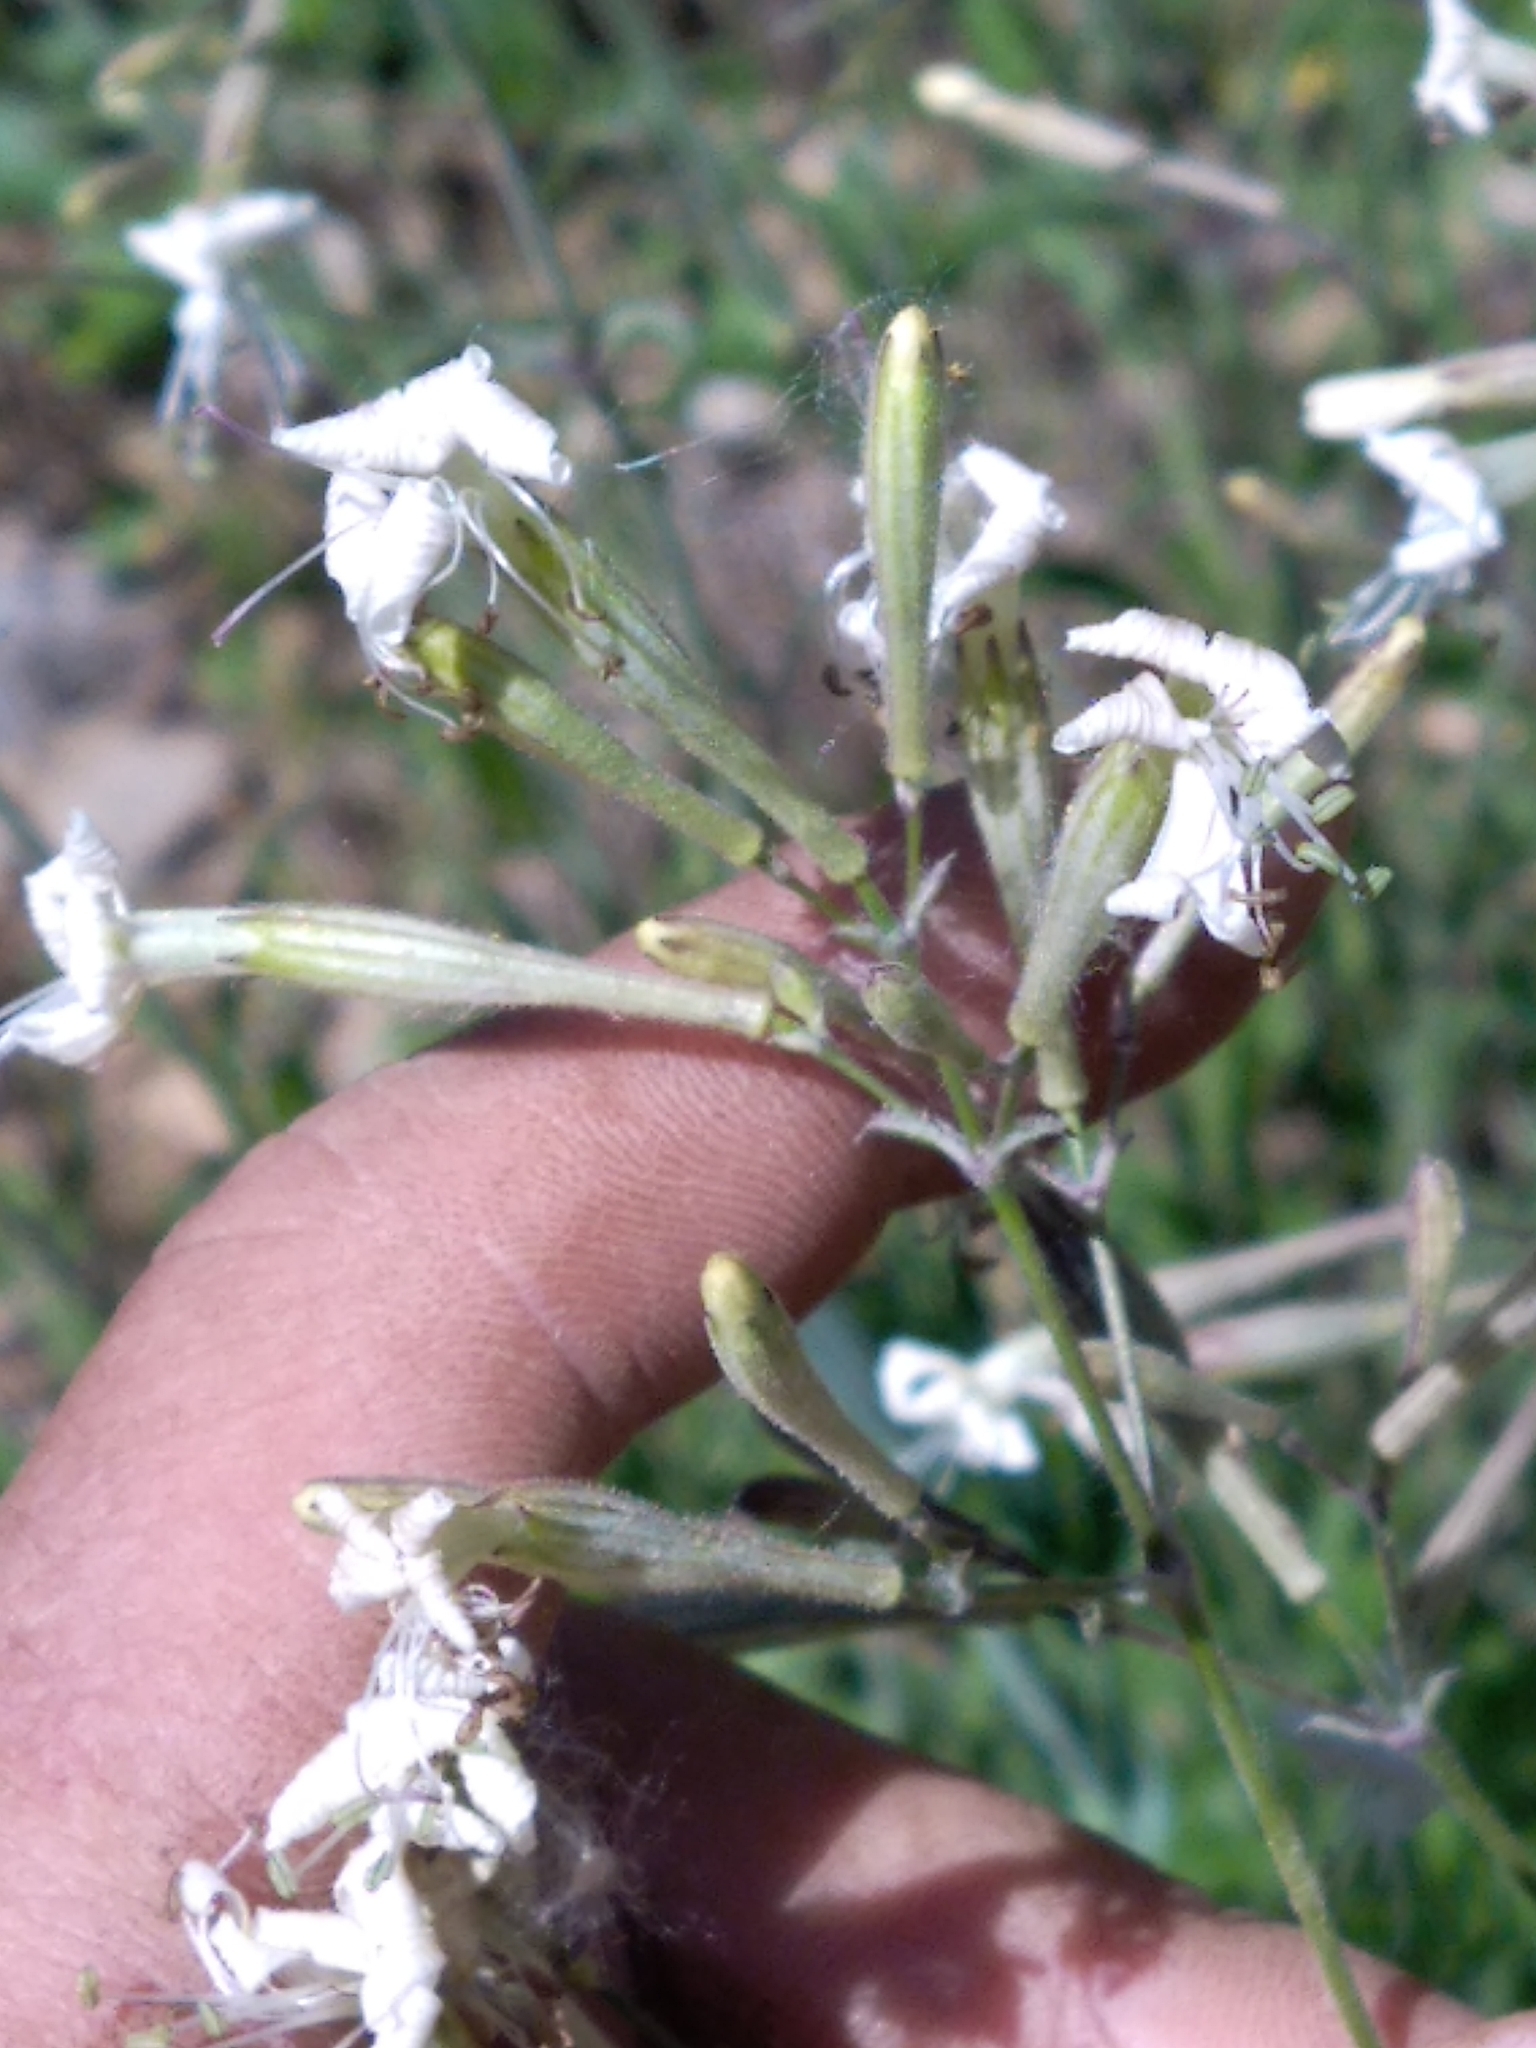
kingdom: Plantae
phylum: Tracheophyta
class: Magnoliopsida
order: Caryophyllales
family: Caryophyllaceae
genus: Silene
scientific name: Silene italica
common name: Italian catchfly
